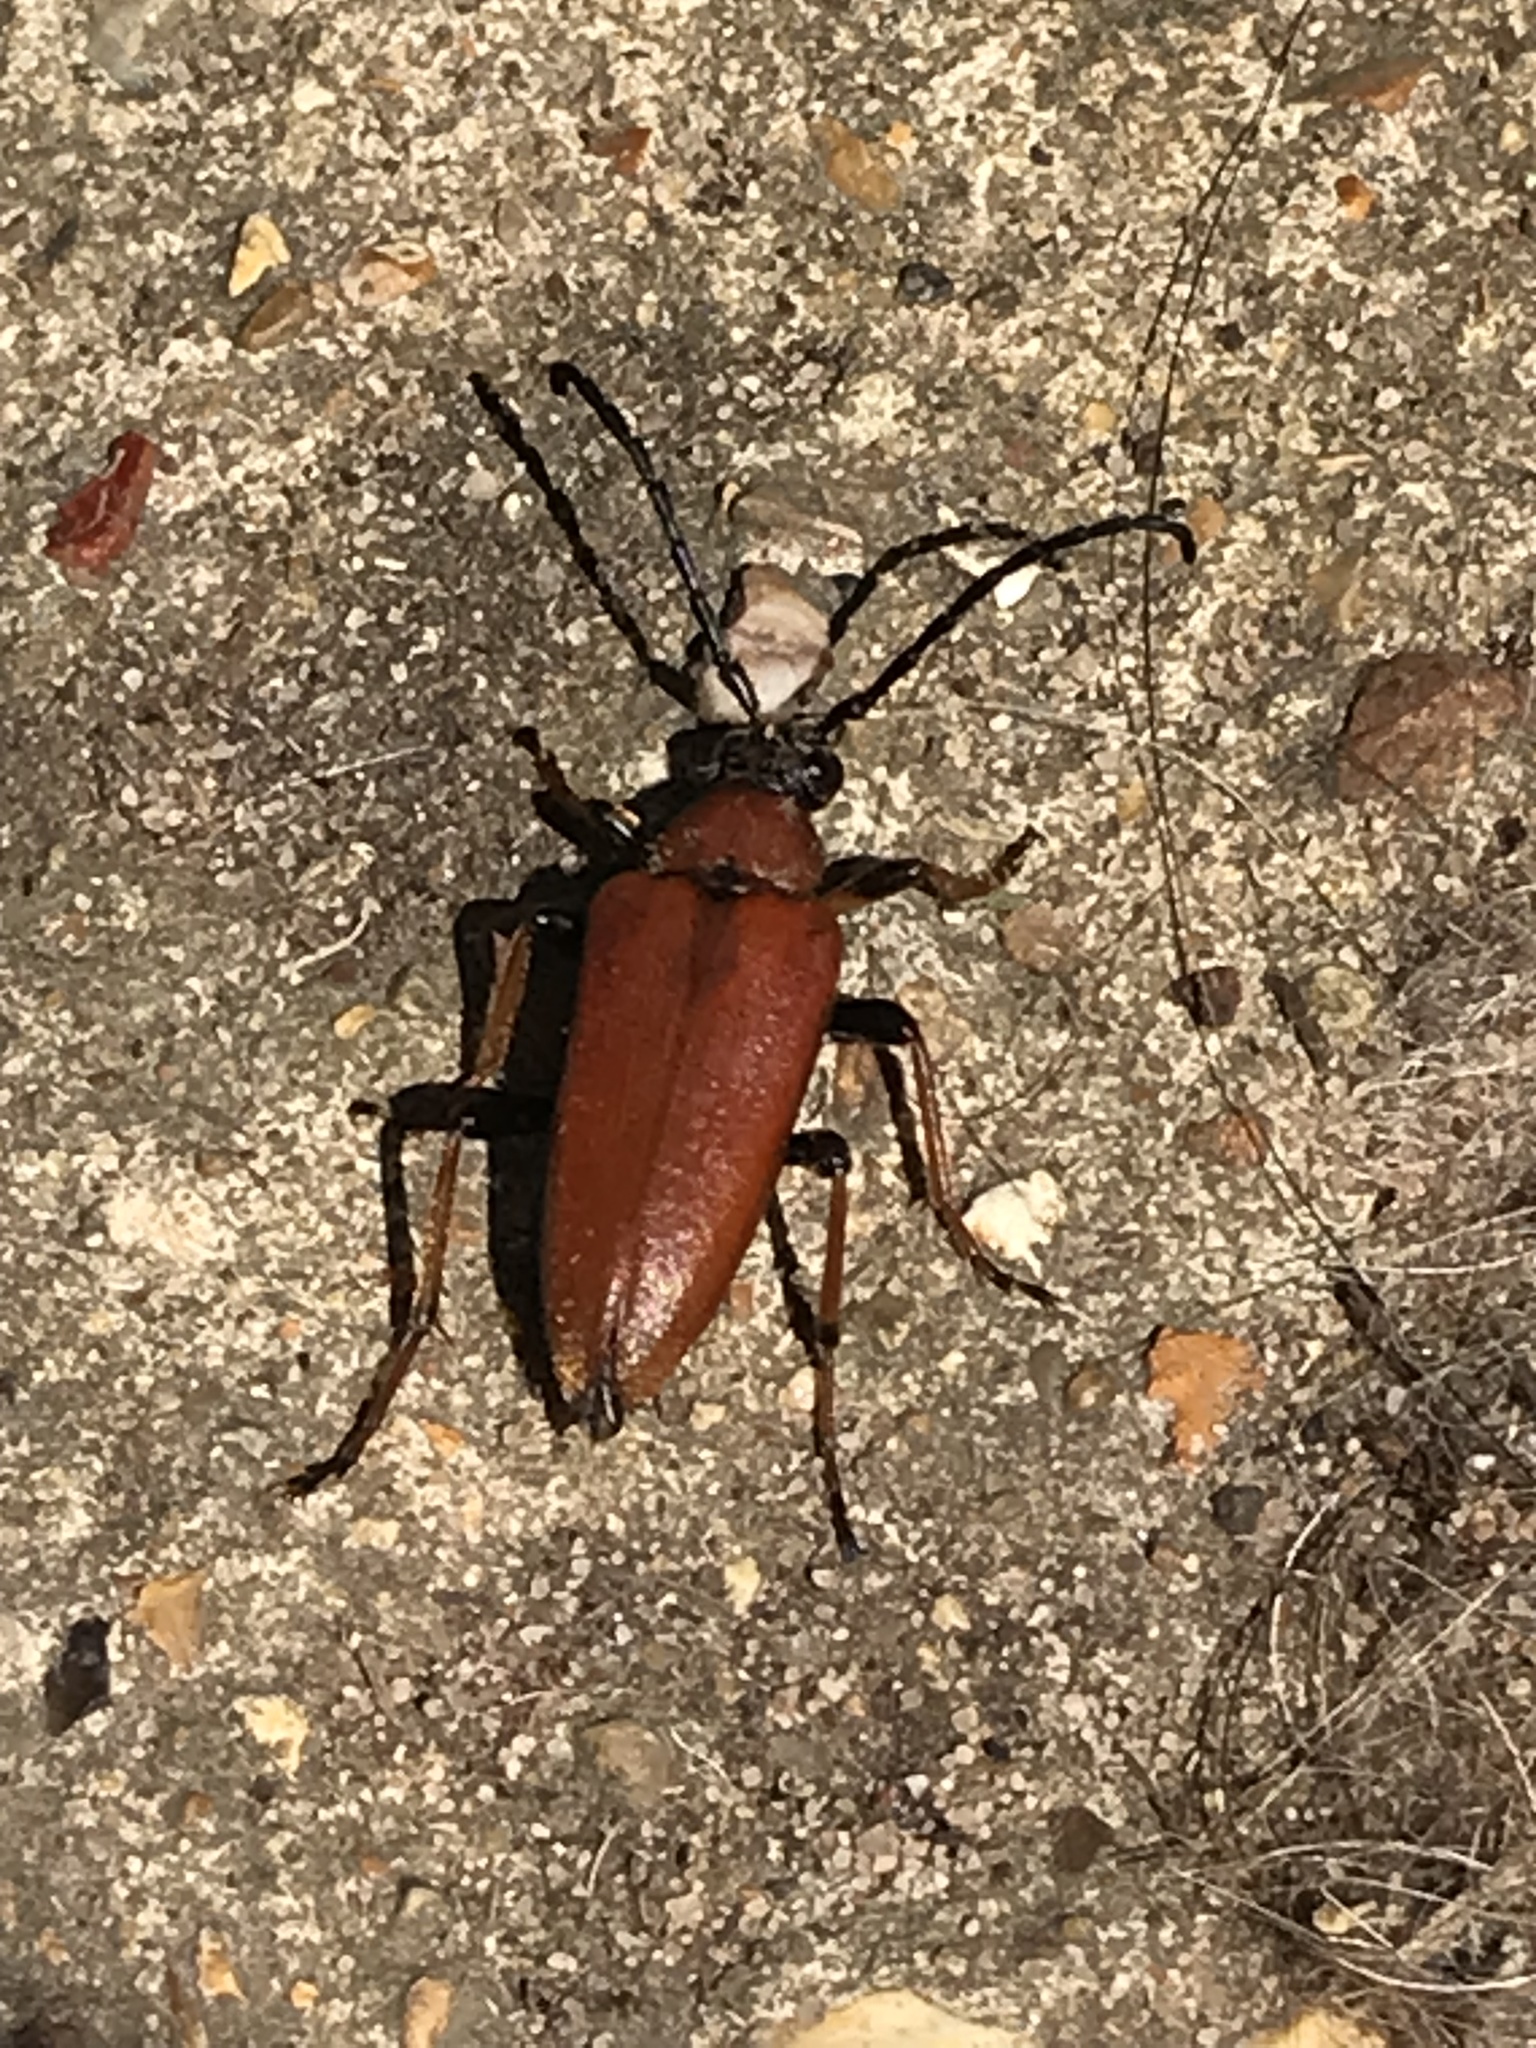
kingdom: Animalia
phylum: Arthropoda
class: Insecta
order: Coleoptera
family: Cerambycidae
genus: Stictoleptura
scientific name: Stictoleptura rubra
